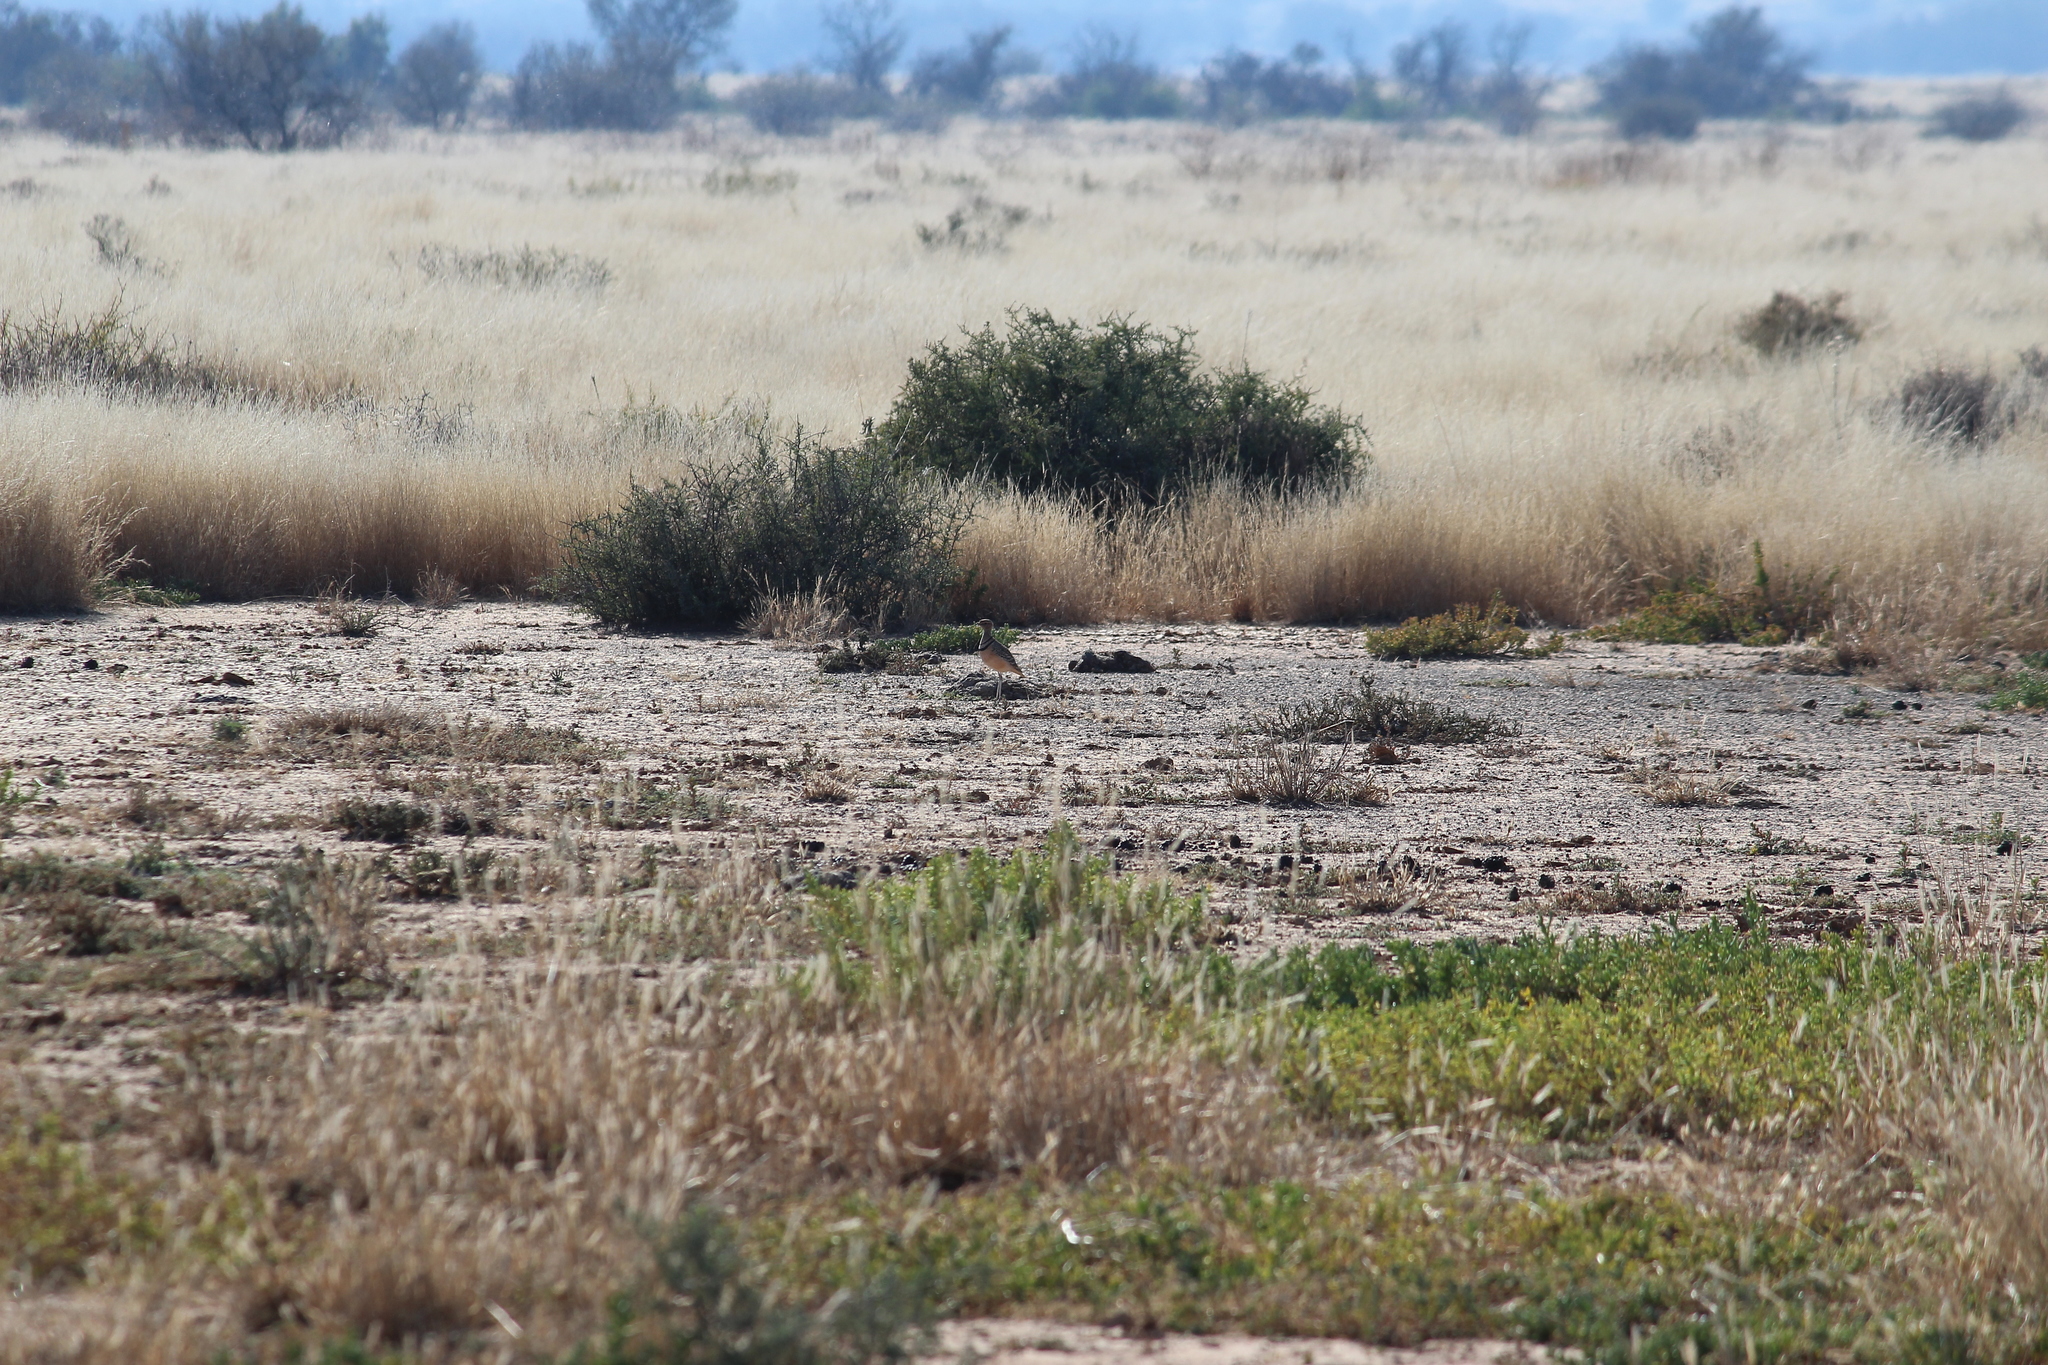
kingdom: Animalia
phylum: Chordata
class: Aves
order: Charadriiformes
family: Glareolidae
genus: Rhinoptilus
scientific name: Rhinoptilus africanus
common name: Double-banded courser
